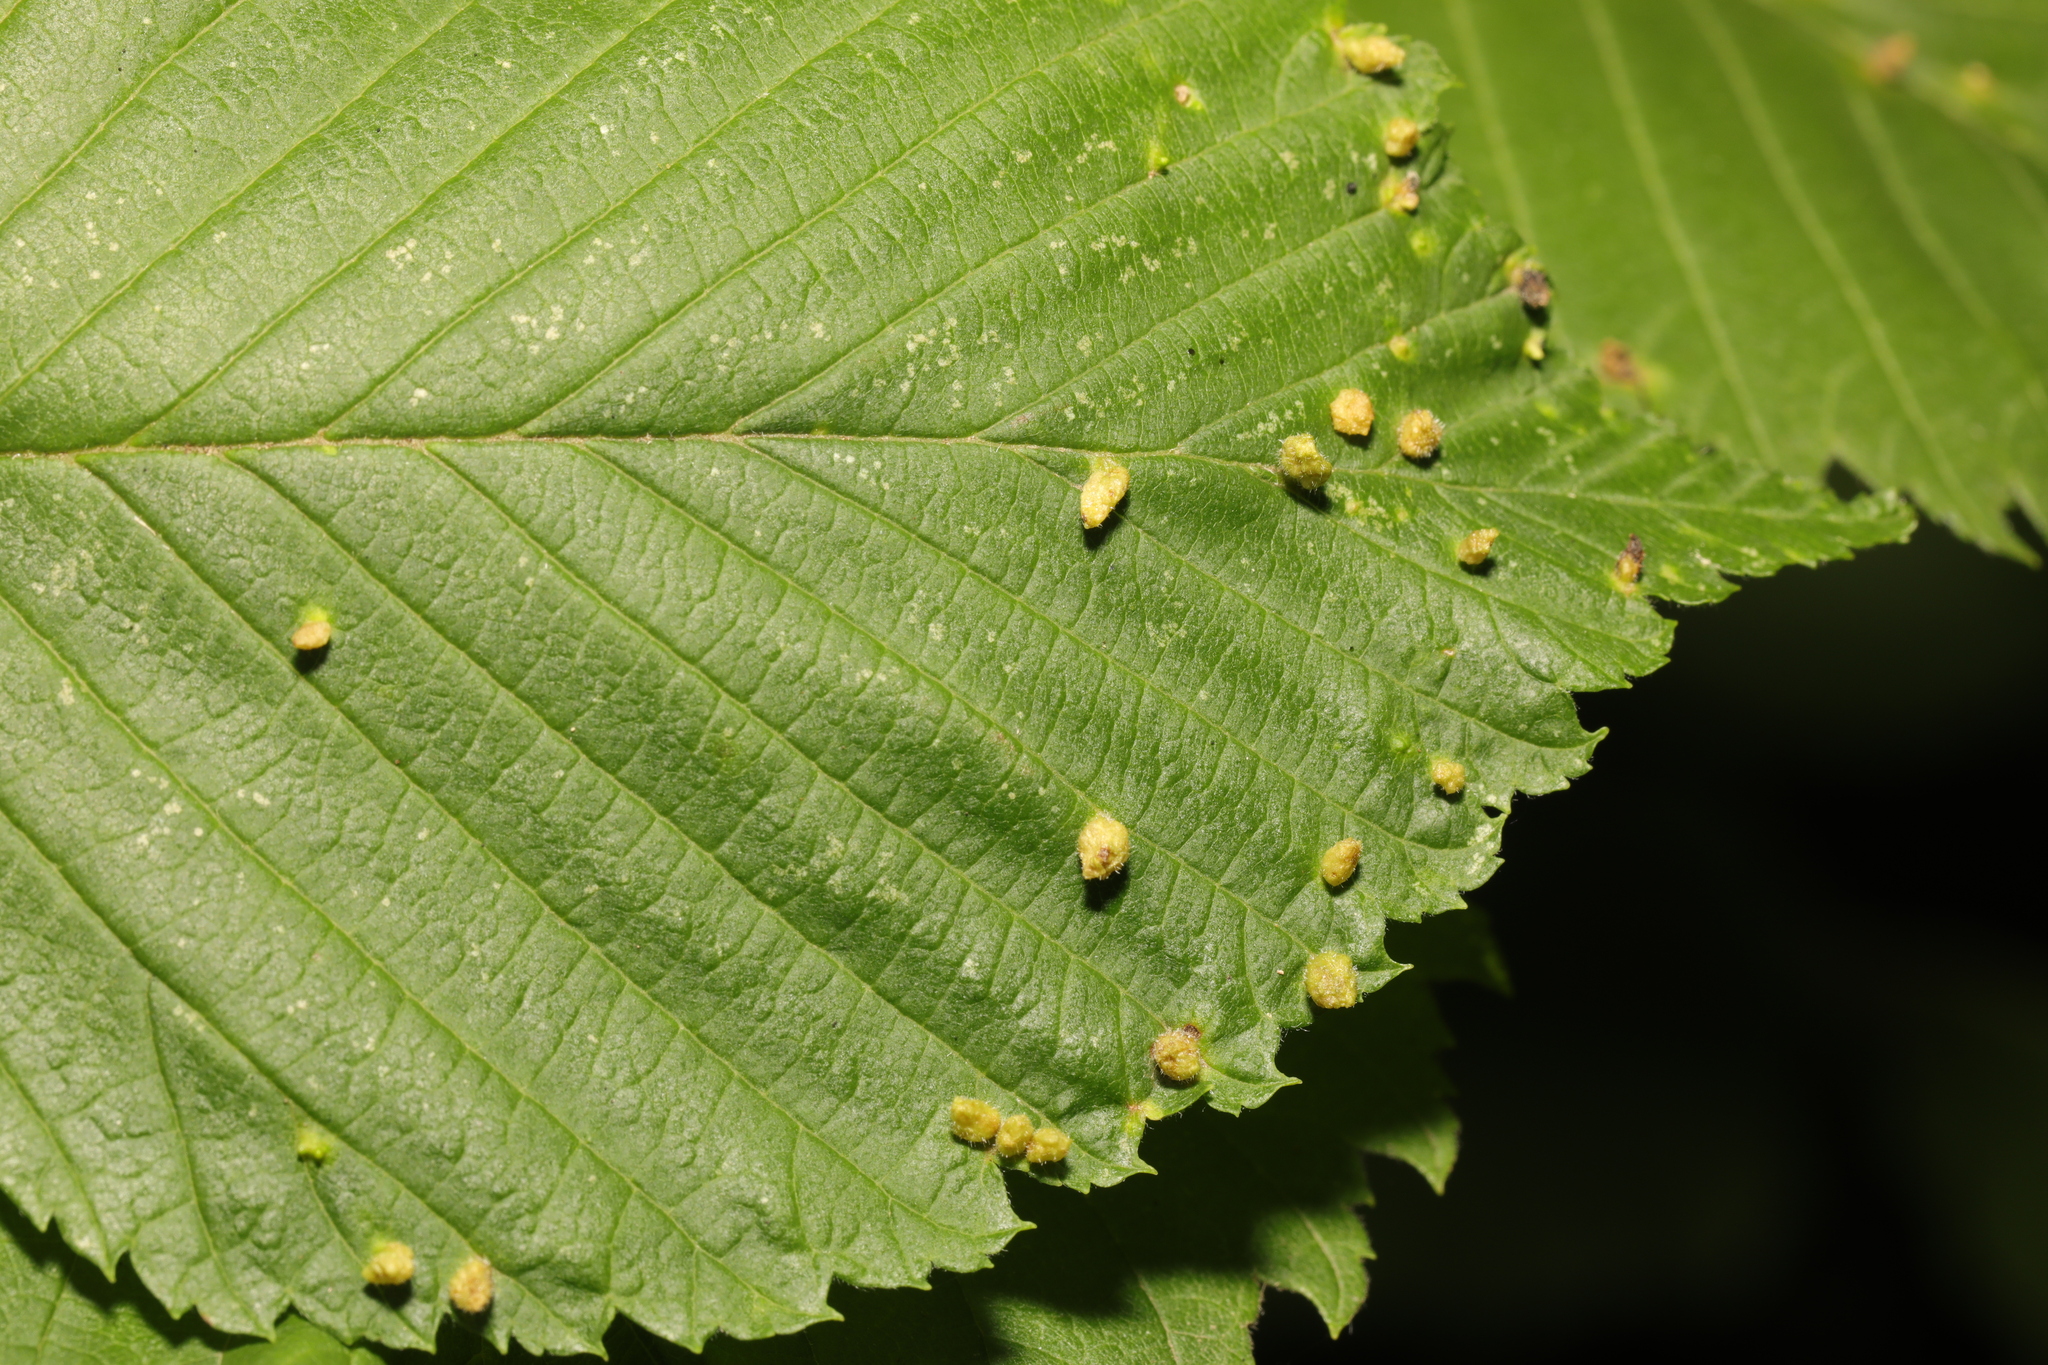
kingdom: Animalia
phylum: Arthropoda
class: Arachnida
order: Trombidiformes
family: Eriophyidae
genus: Aceria
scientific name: Aceria brevipunctata
